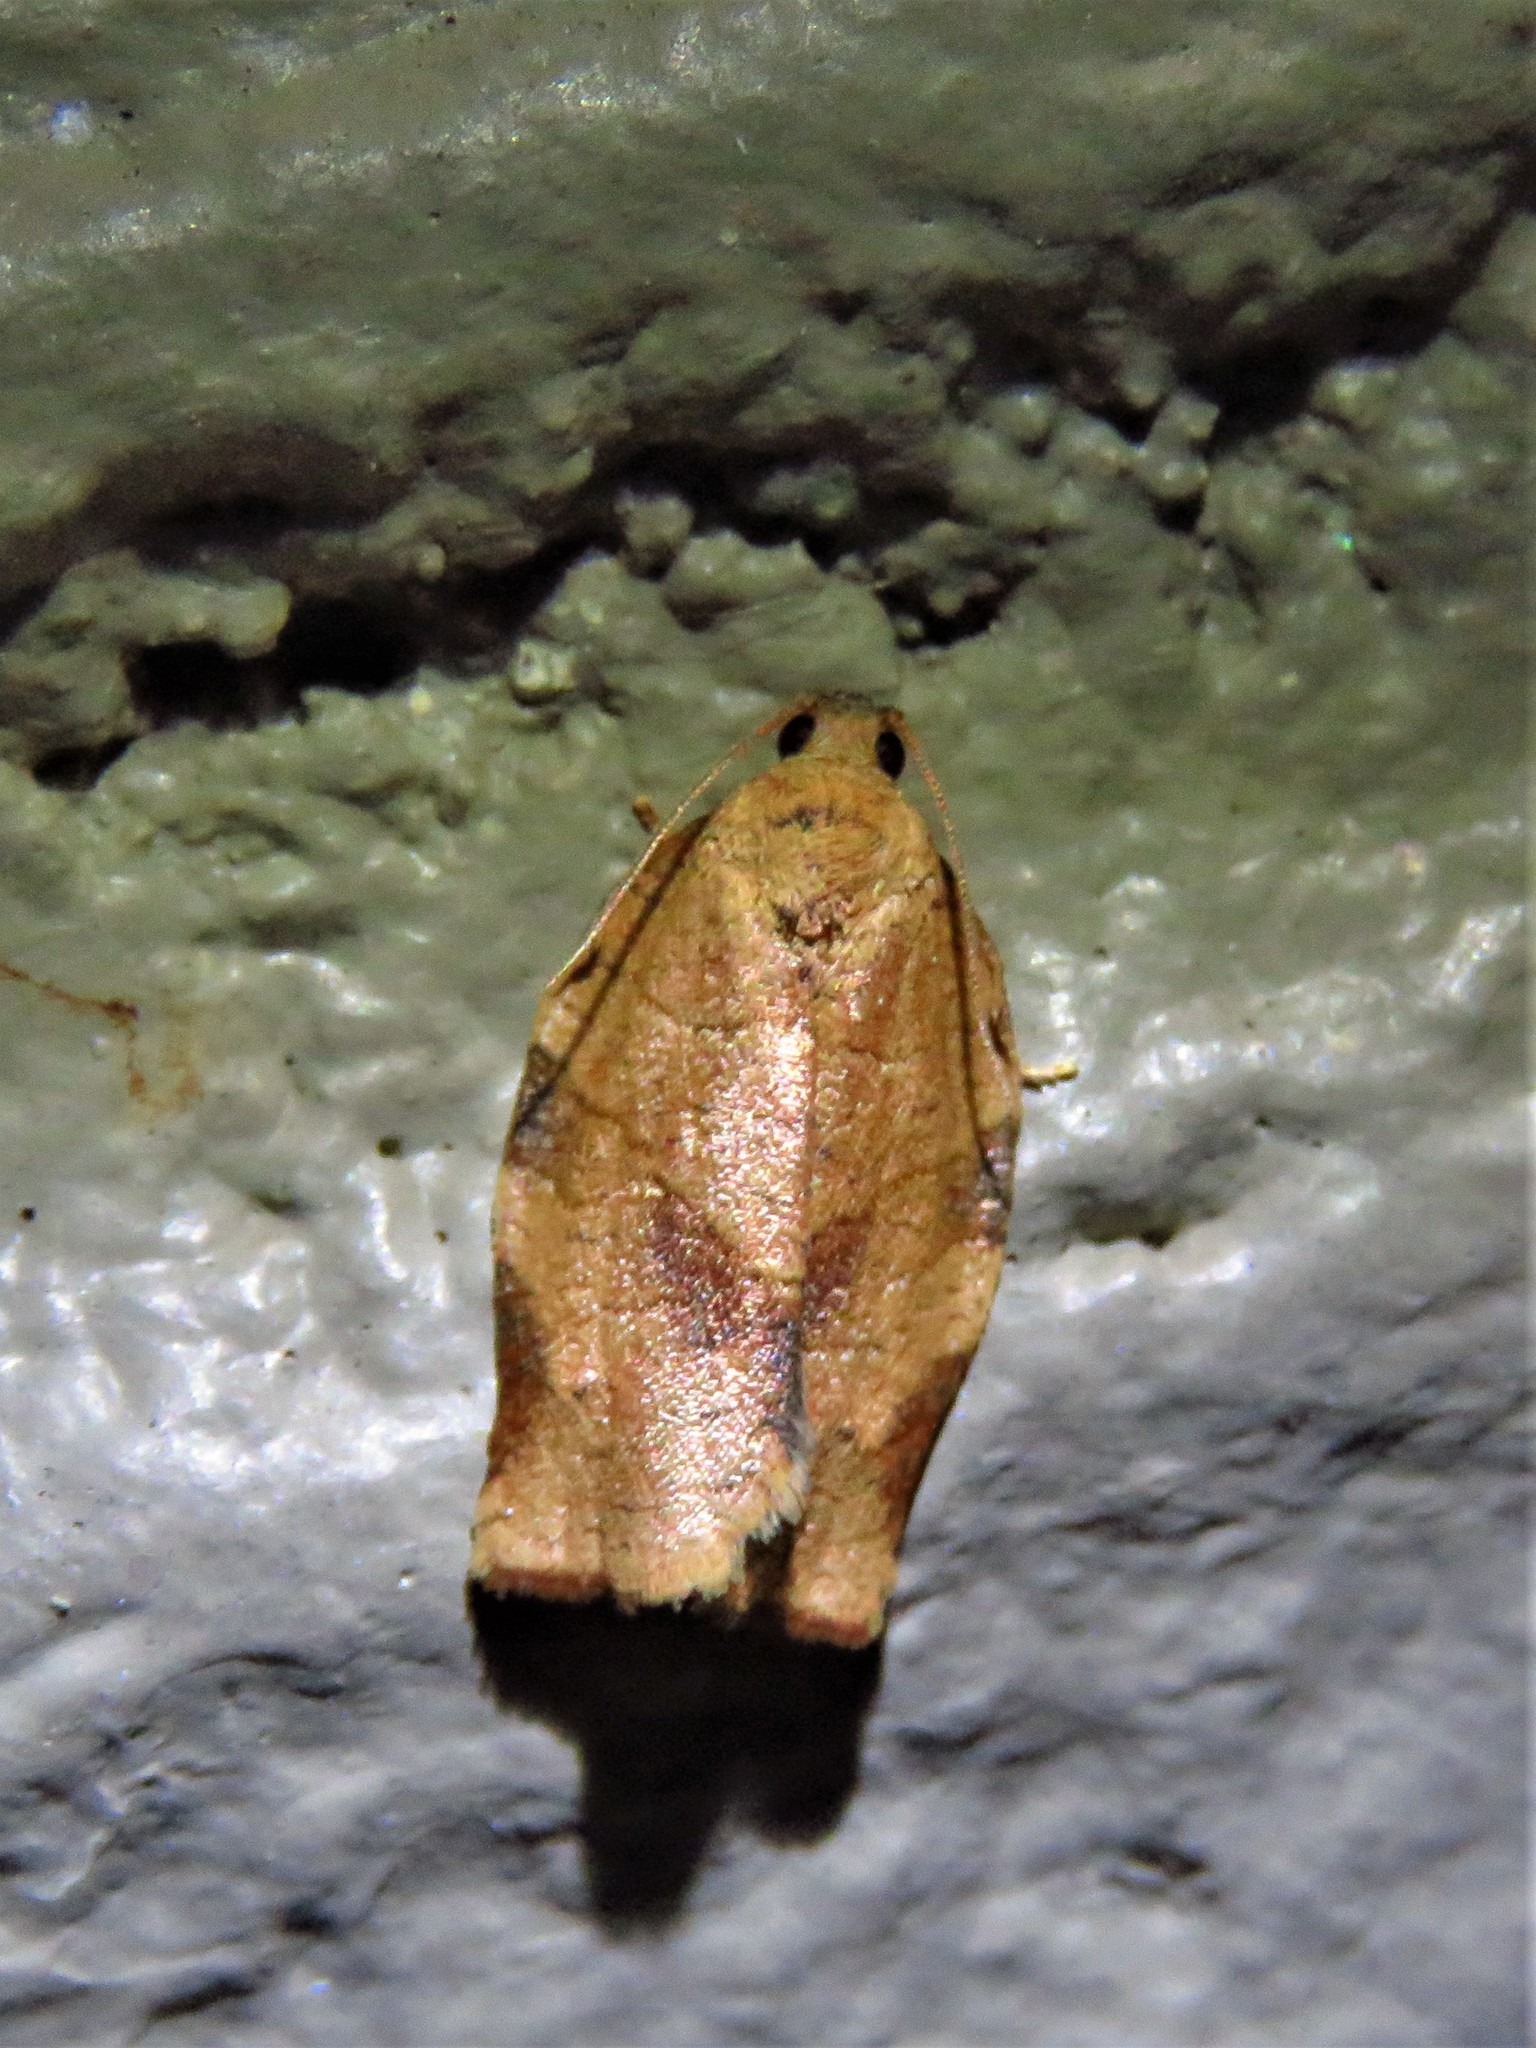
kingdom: Animalia
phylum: Arthropoda
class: Insecta
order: Lepidoptera
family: Tortricidae
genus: Choristoneura
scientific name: Choristoneura rosaceana
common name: Oblique-banded leafroller moth
